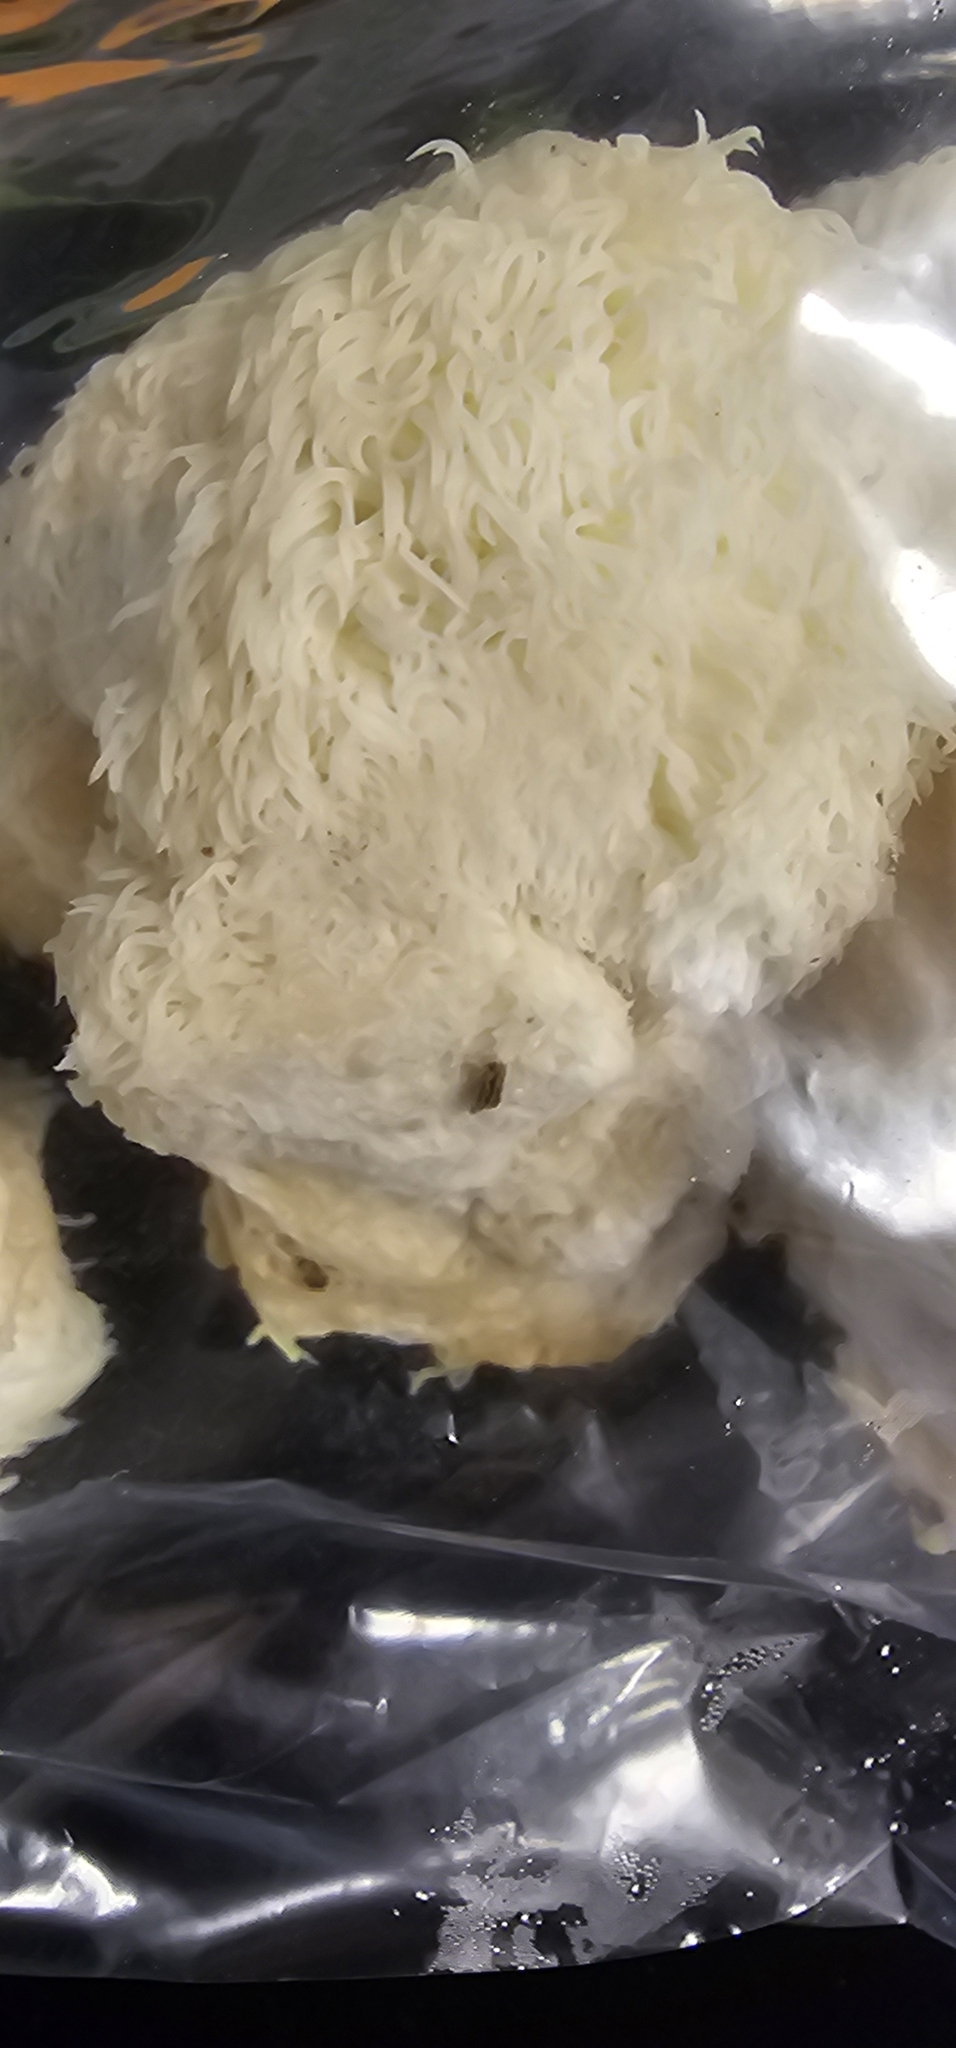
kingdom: Fungi
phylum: Basidiomycota
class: Agaricomycetes
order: Russulales
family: Hericiaceae
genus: Hericium
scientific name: Hericium erinaceus
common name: Bearded tooth
